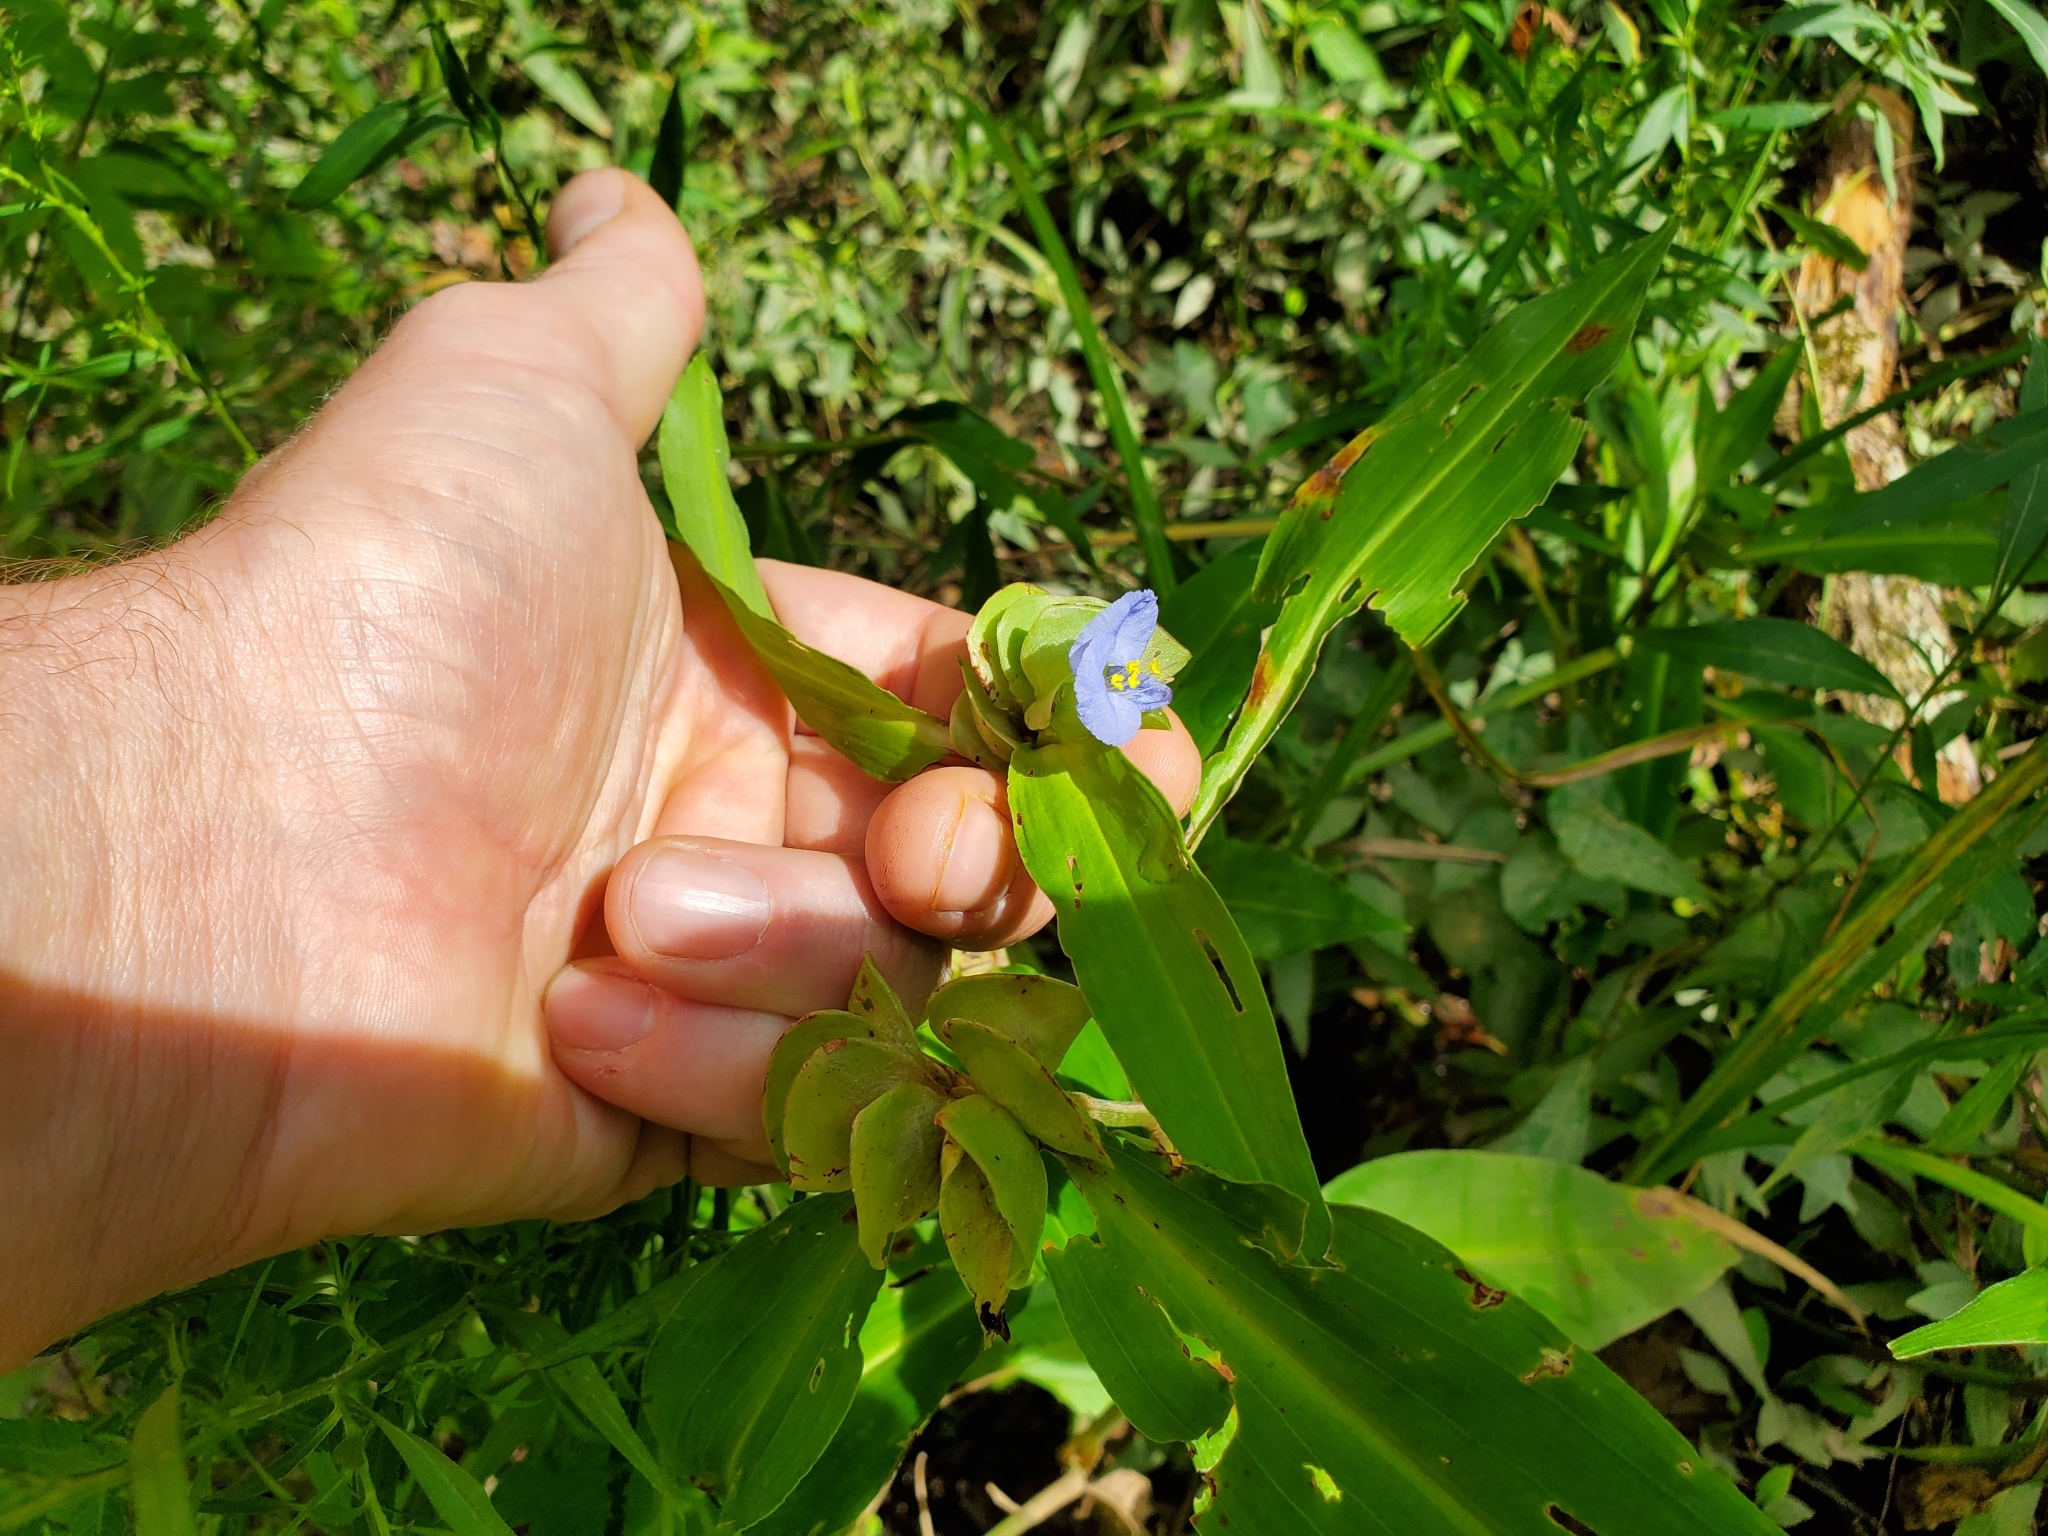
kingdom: Plantae
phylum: Tracheophyta
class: Liliopsida
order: Commelinales
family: Commelinaceae
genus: Commelina
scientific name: Commelina virginica
